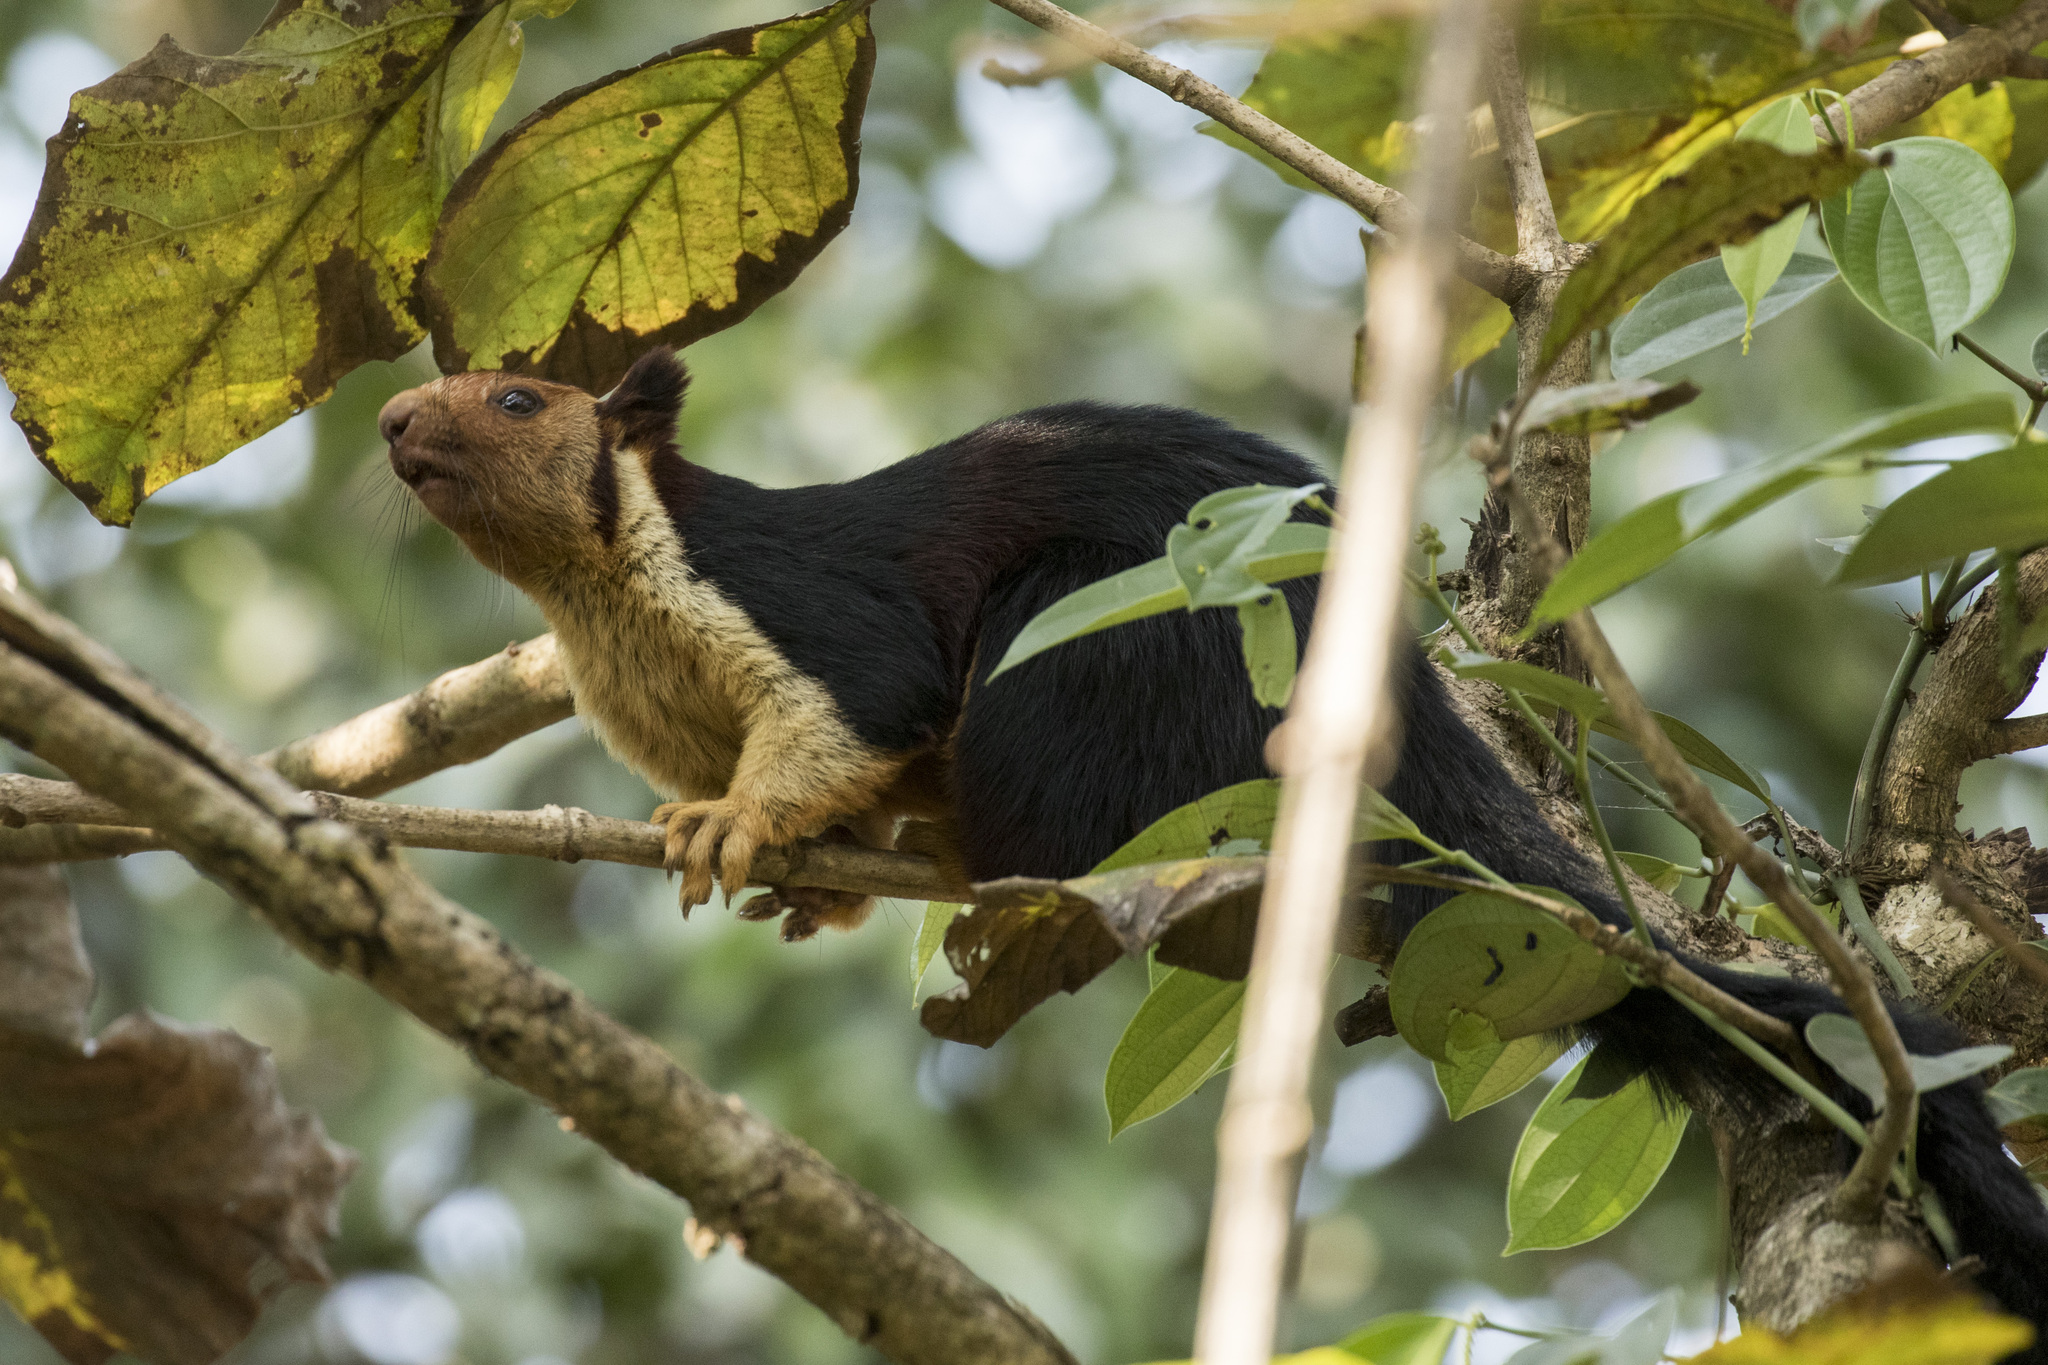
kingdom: Animalia
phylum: Chordata
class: Mammalia
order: Rodentia
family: Sciuridae
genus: Ratufa
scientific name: Ratufa indica
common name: Indian giant squirrel
